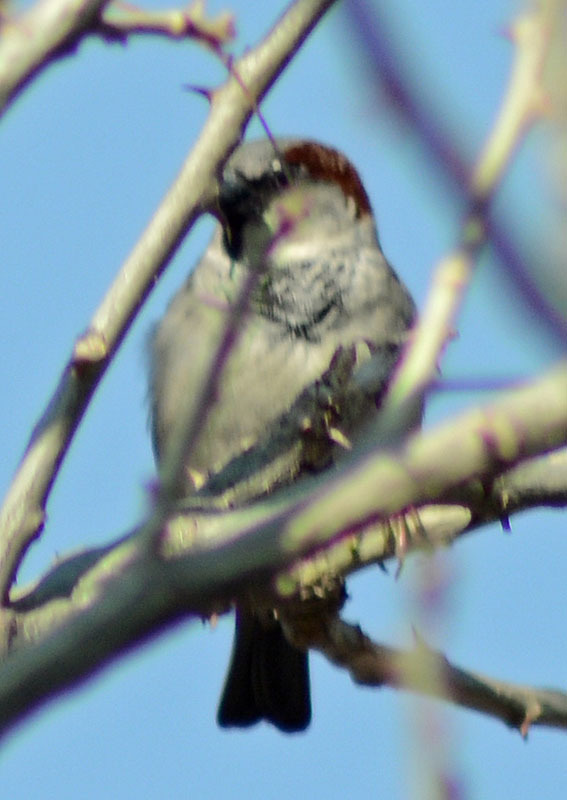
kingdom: Animalia
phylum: Chordata
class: Aves
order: Passeriformes
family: Passeridae
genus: Passer
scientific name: Passer domesticus
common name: House sparrow
